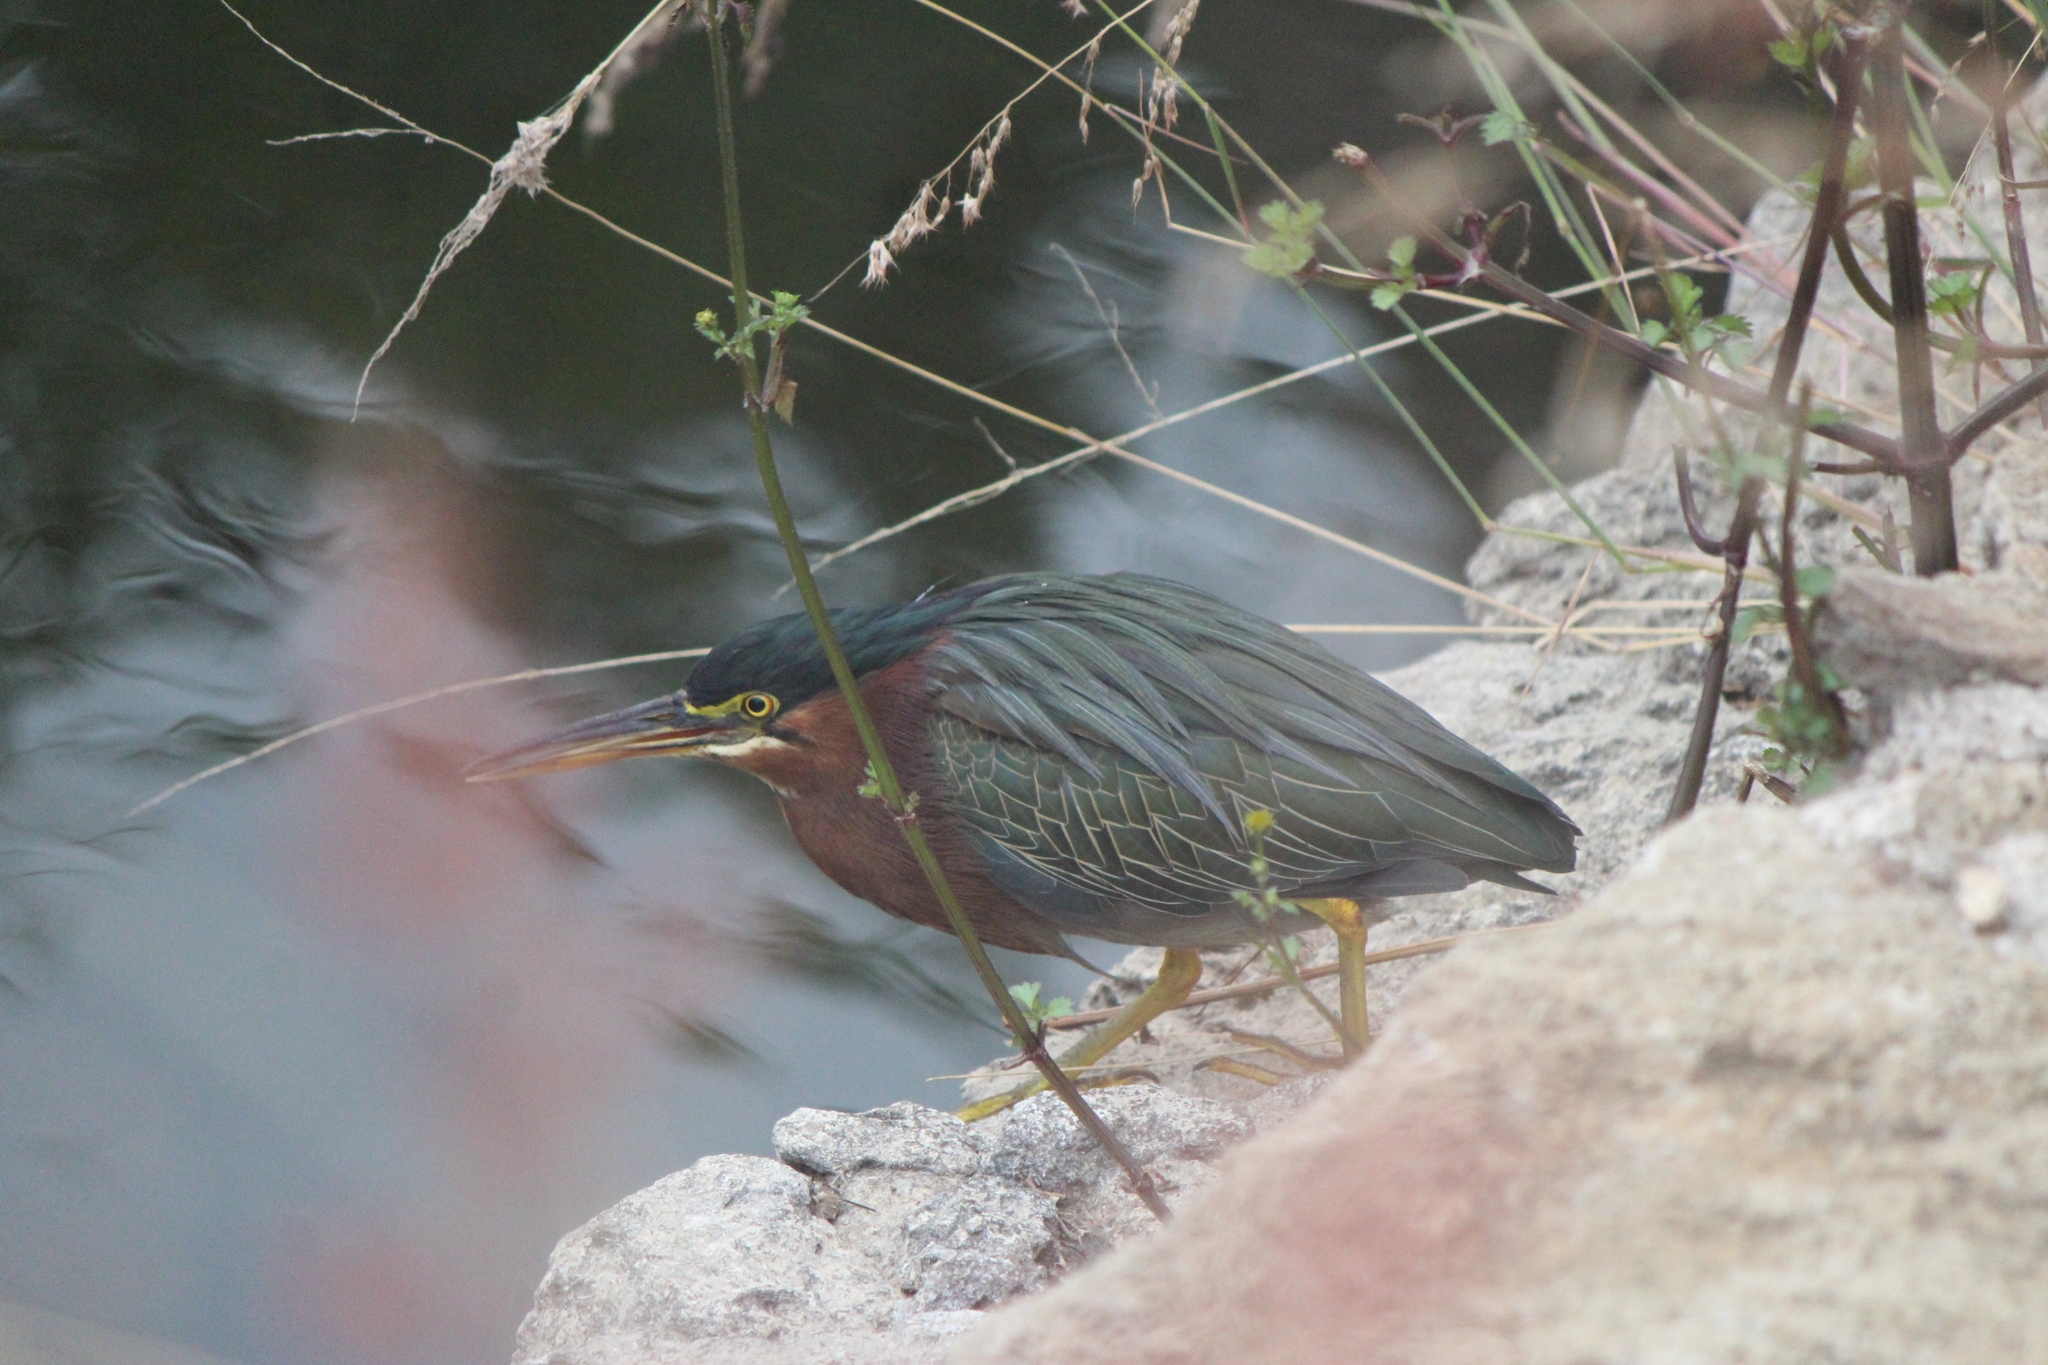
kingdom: Animalia
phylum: Chordata
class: Aves
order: Pelecaniformes
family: Ardeidae
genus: Butorides
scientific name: Butorides virescens
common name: Green heron
